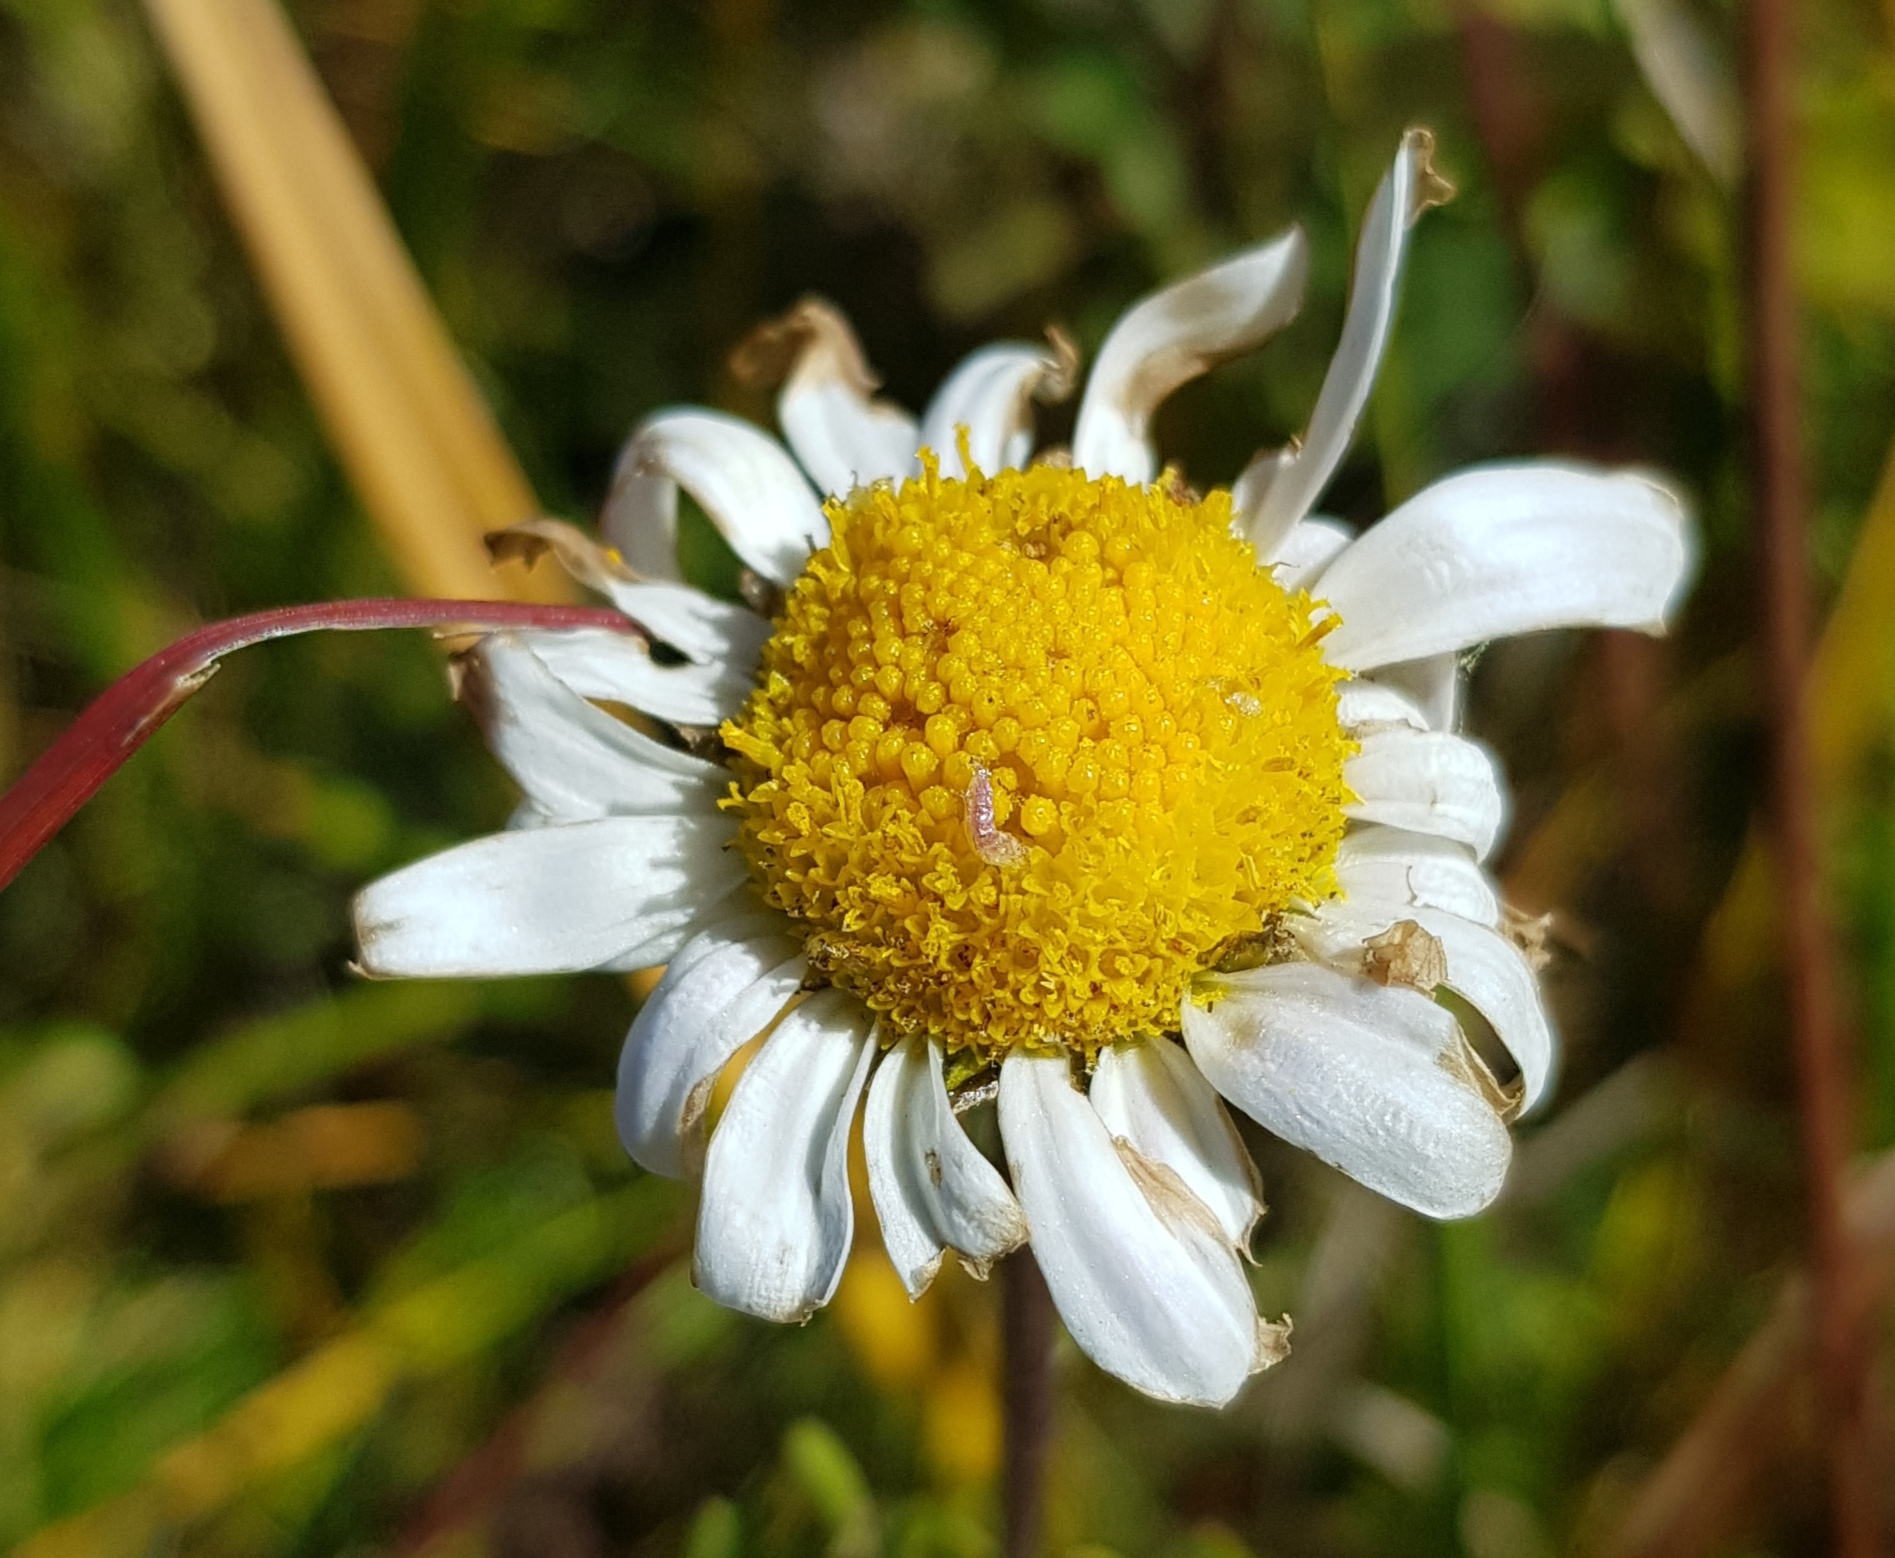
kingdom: Plantae
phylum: Tracheophyta
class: Magnoliopsida
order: Asterales
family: Asteraceae
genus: Chrysanthemum
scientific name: Chrysanthemum zawadzkii
